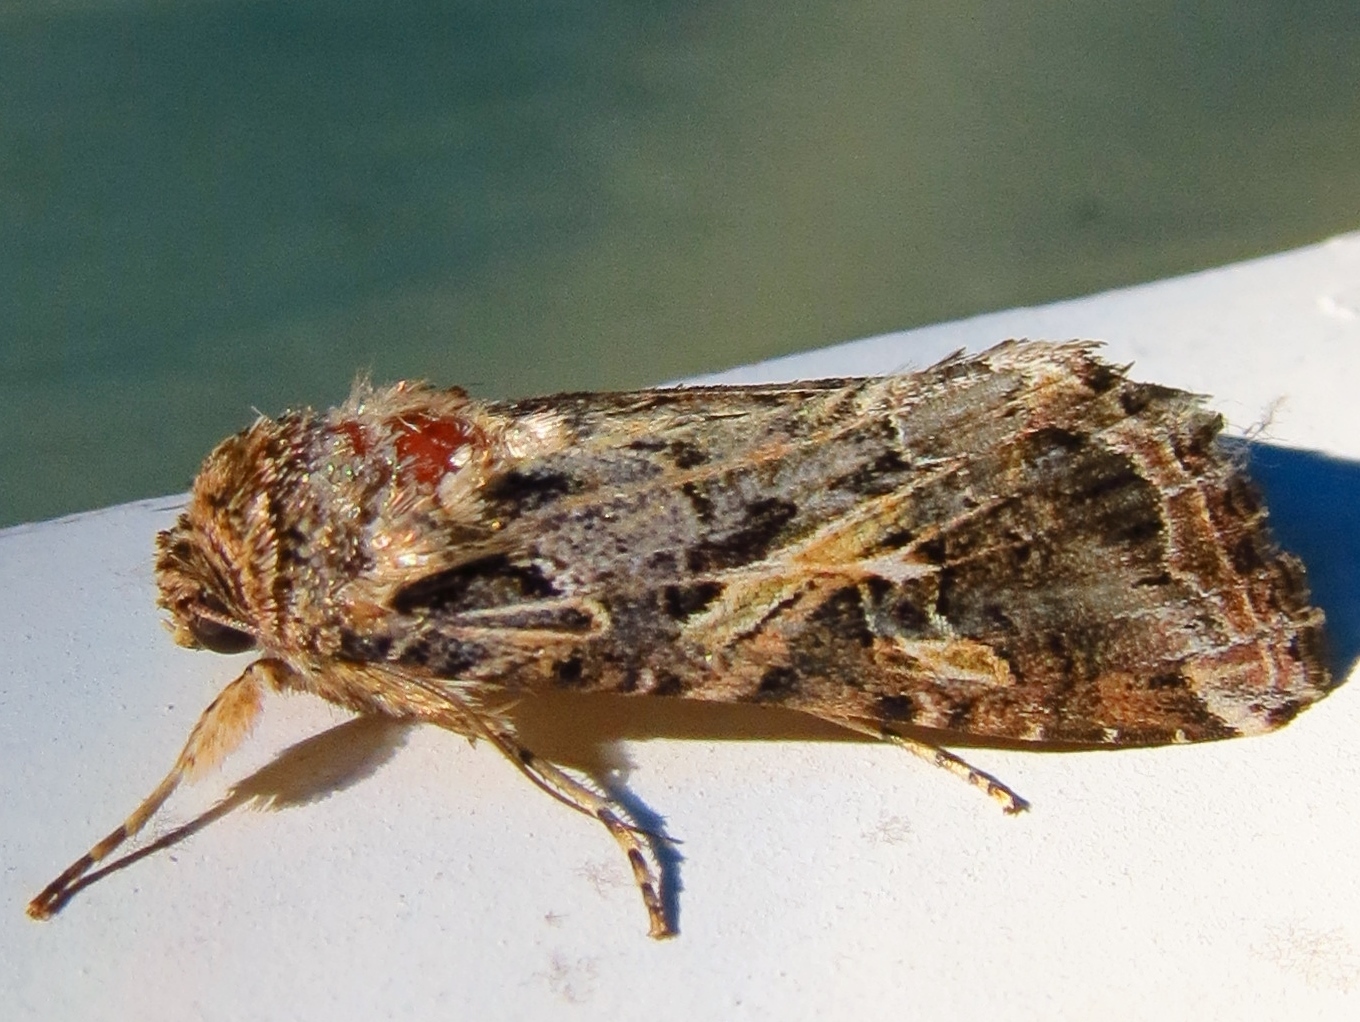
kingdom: Animalia
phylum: Arthropoda
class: Insecta
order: Lepidoptera
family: Noctuidae
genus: Spodoptera
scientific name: Spodoptera ornithogalli
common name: Yellow-striped armyworm
